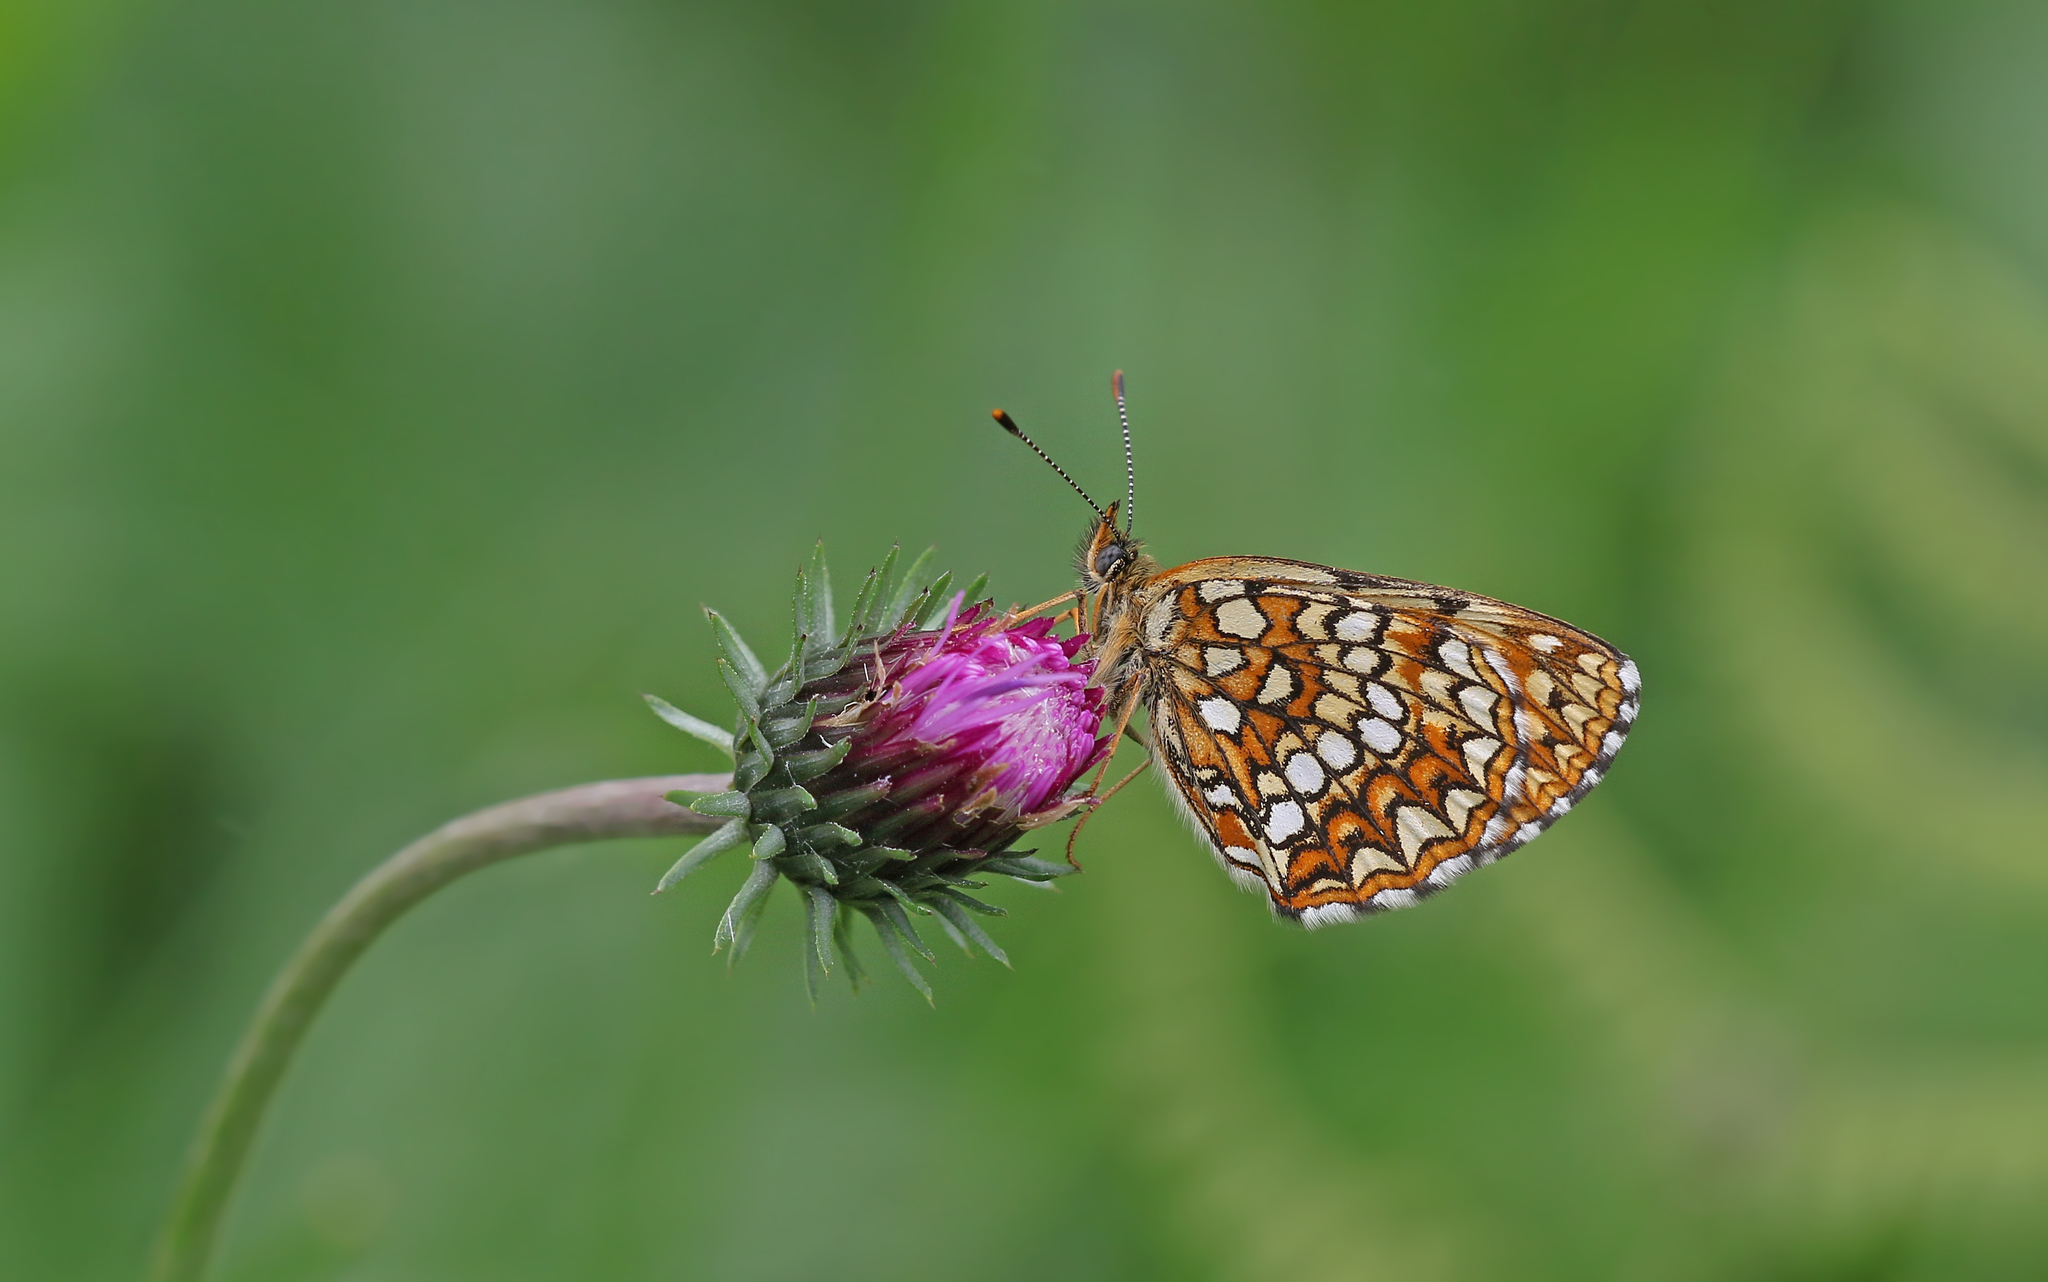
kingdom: Animalia
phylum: Arthropoda
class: Insecta
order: Lepidoptera
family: Nymphalidae
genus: Melitaea
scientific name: Melitaea diamina
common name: False heath fritillary
